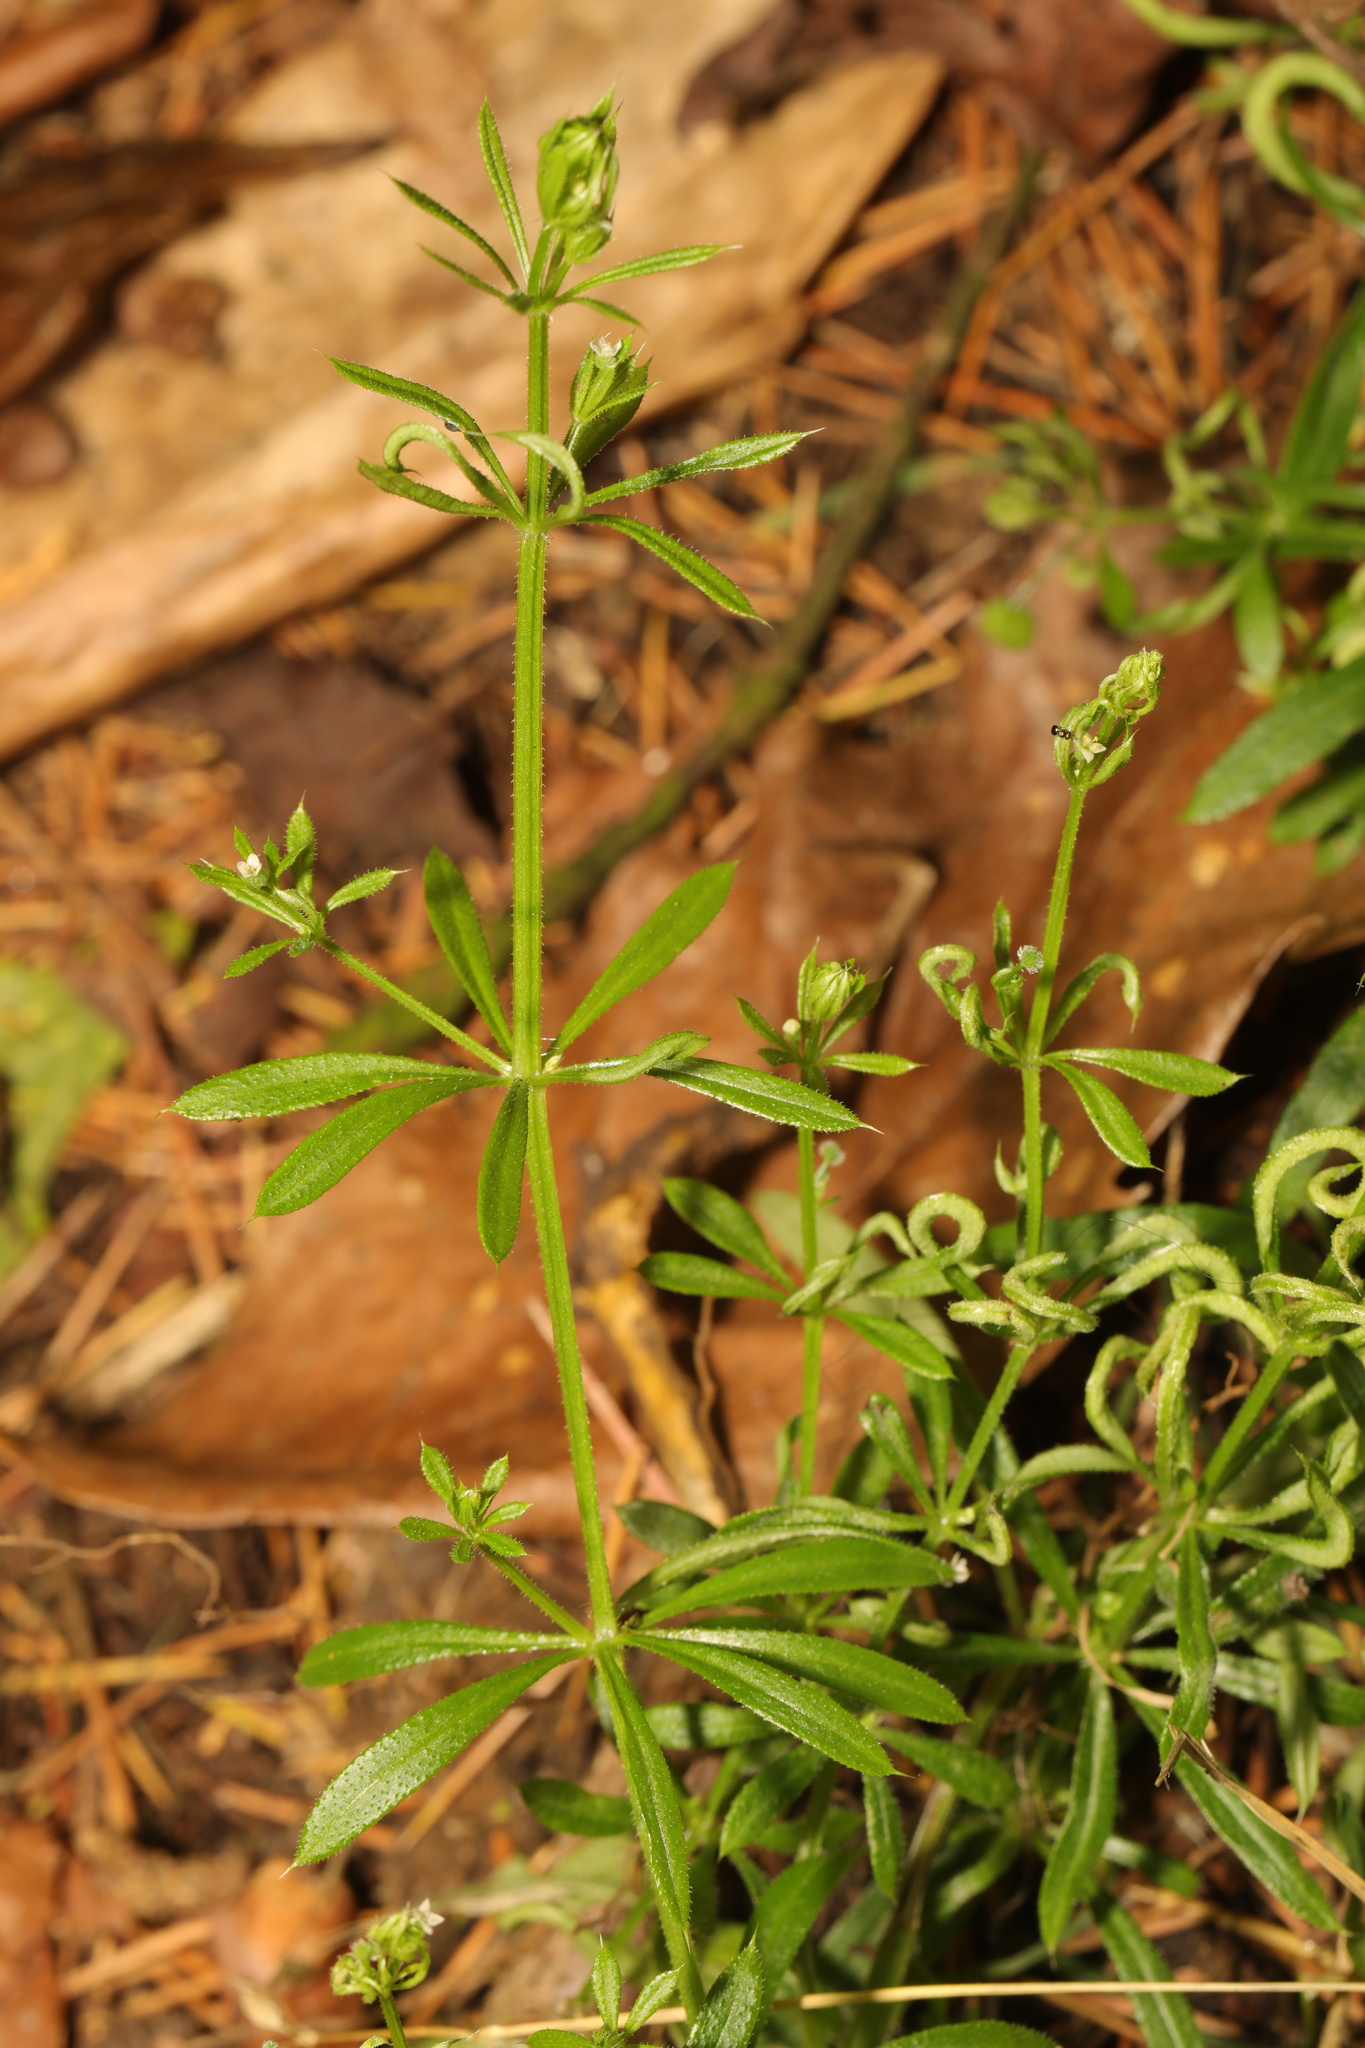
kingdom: Plantae
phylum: Tracheophyta
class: Magnoliopsida
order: Gentianales
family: Rubiaceae
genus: Galium
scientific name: Galium aparine
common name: Cleavers
